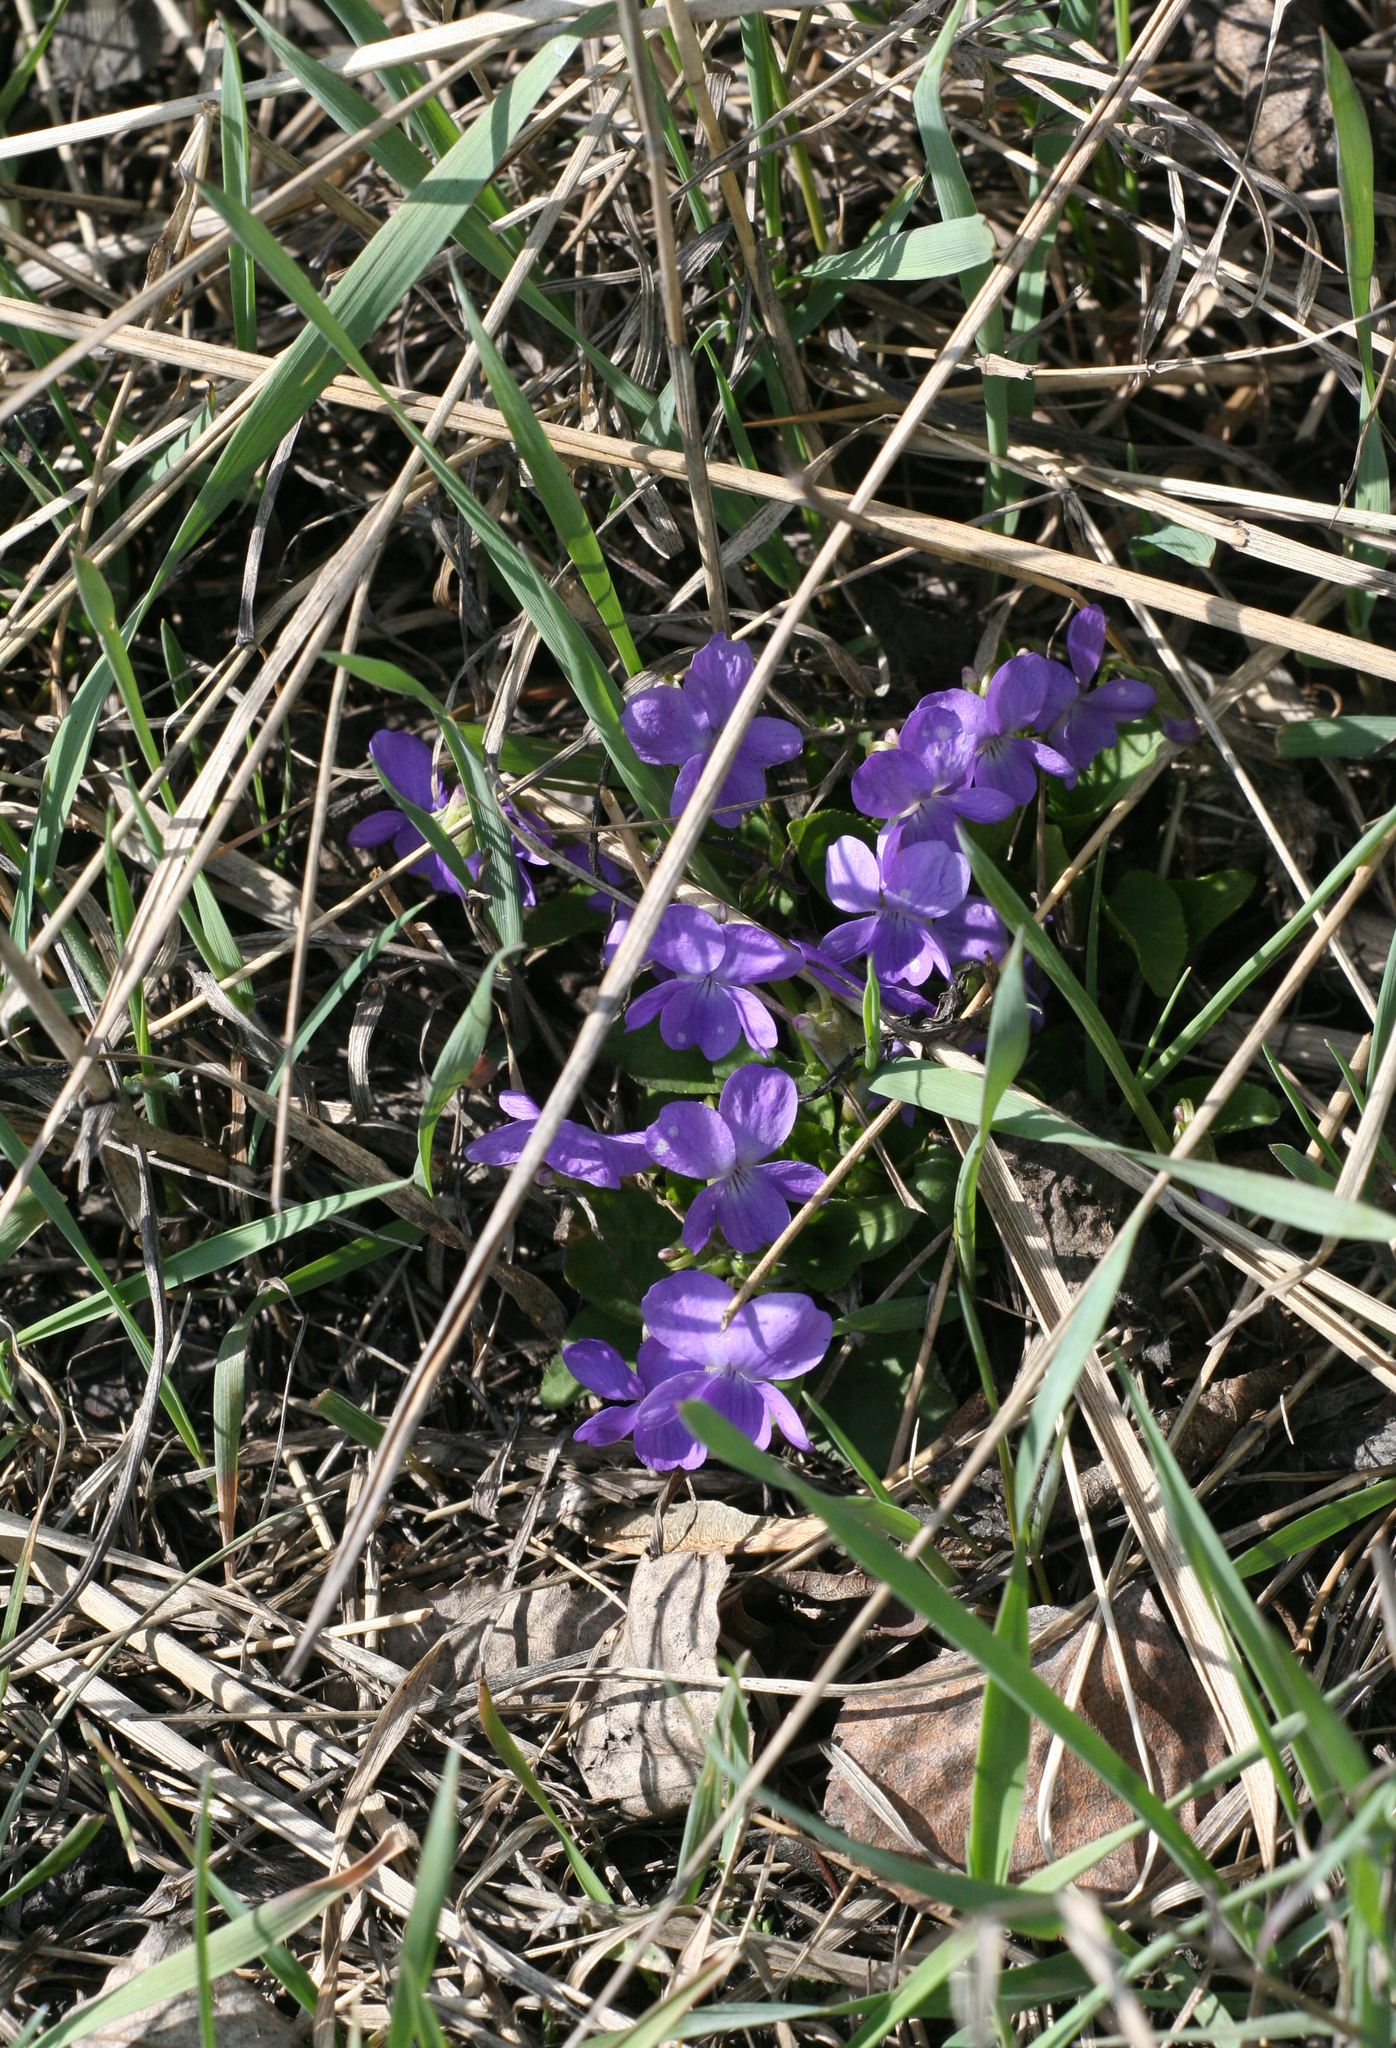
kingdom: Plantae
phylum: Tracheophyta
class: Magnoliopsida
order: Malpighiales
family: Violaceae
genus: Viola
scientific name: Viola hirta
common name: Hairy violet
